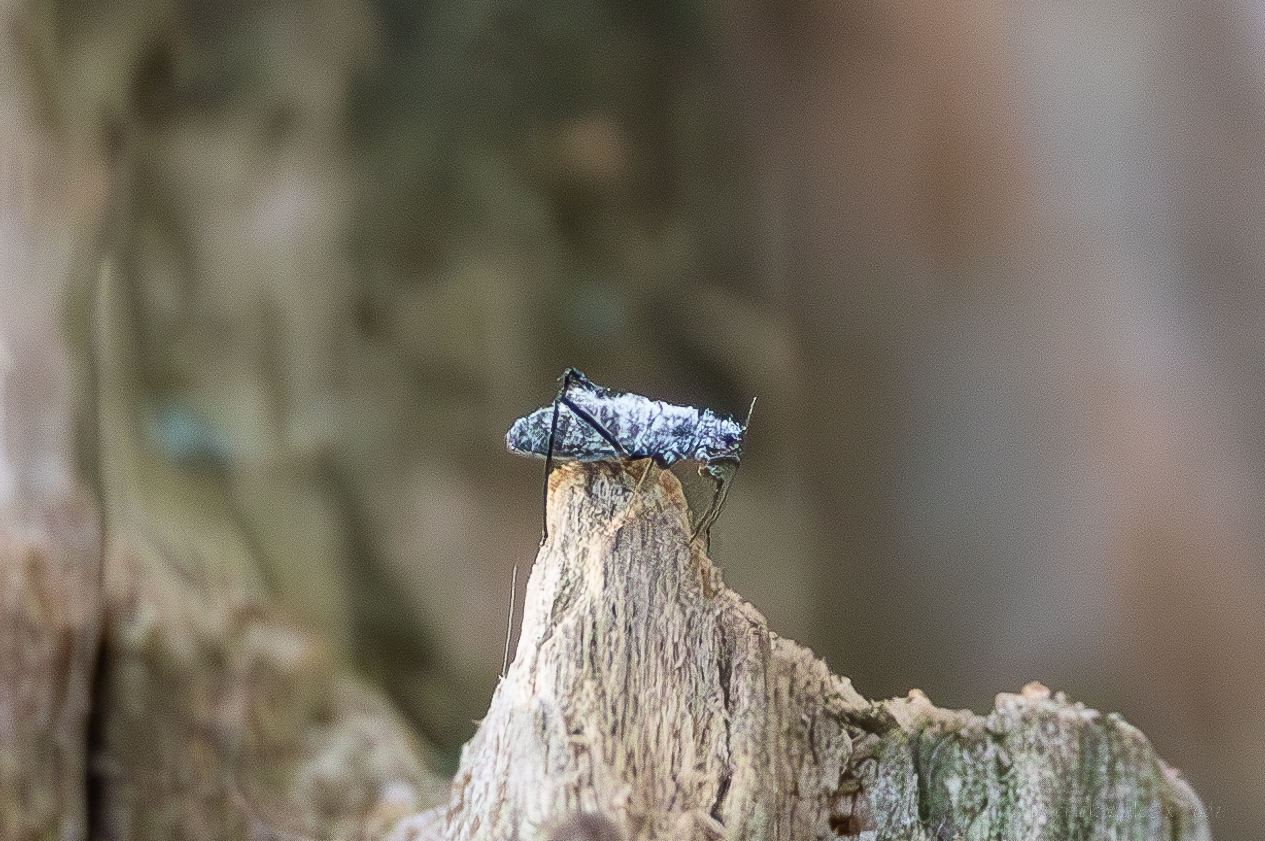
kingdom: Animalia
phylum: Arthropoda
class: Insecta
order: Hemiptera
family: Aphididae
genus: Eulachnus
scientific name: Eulachnus rileyi
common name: Active gray pine needle aphid
